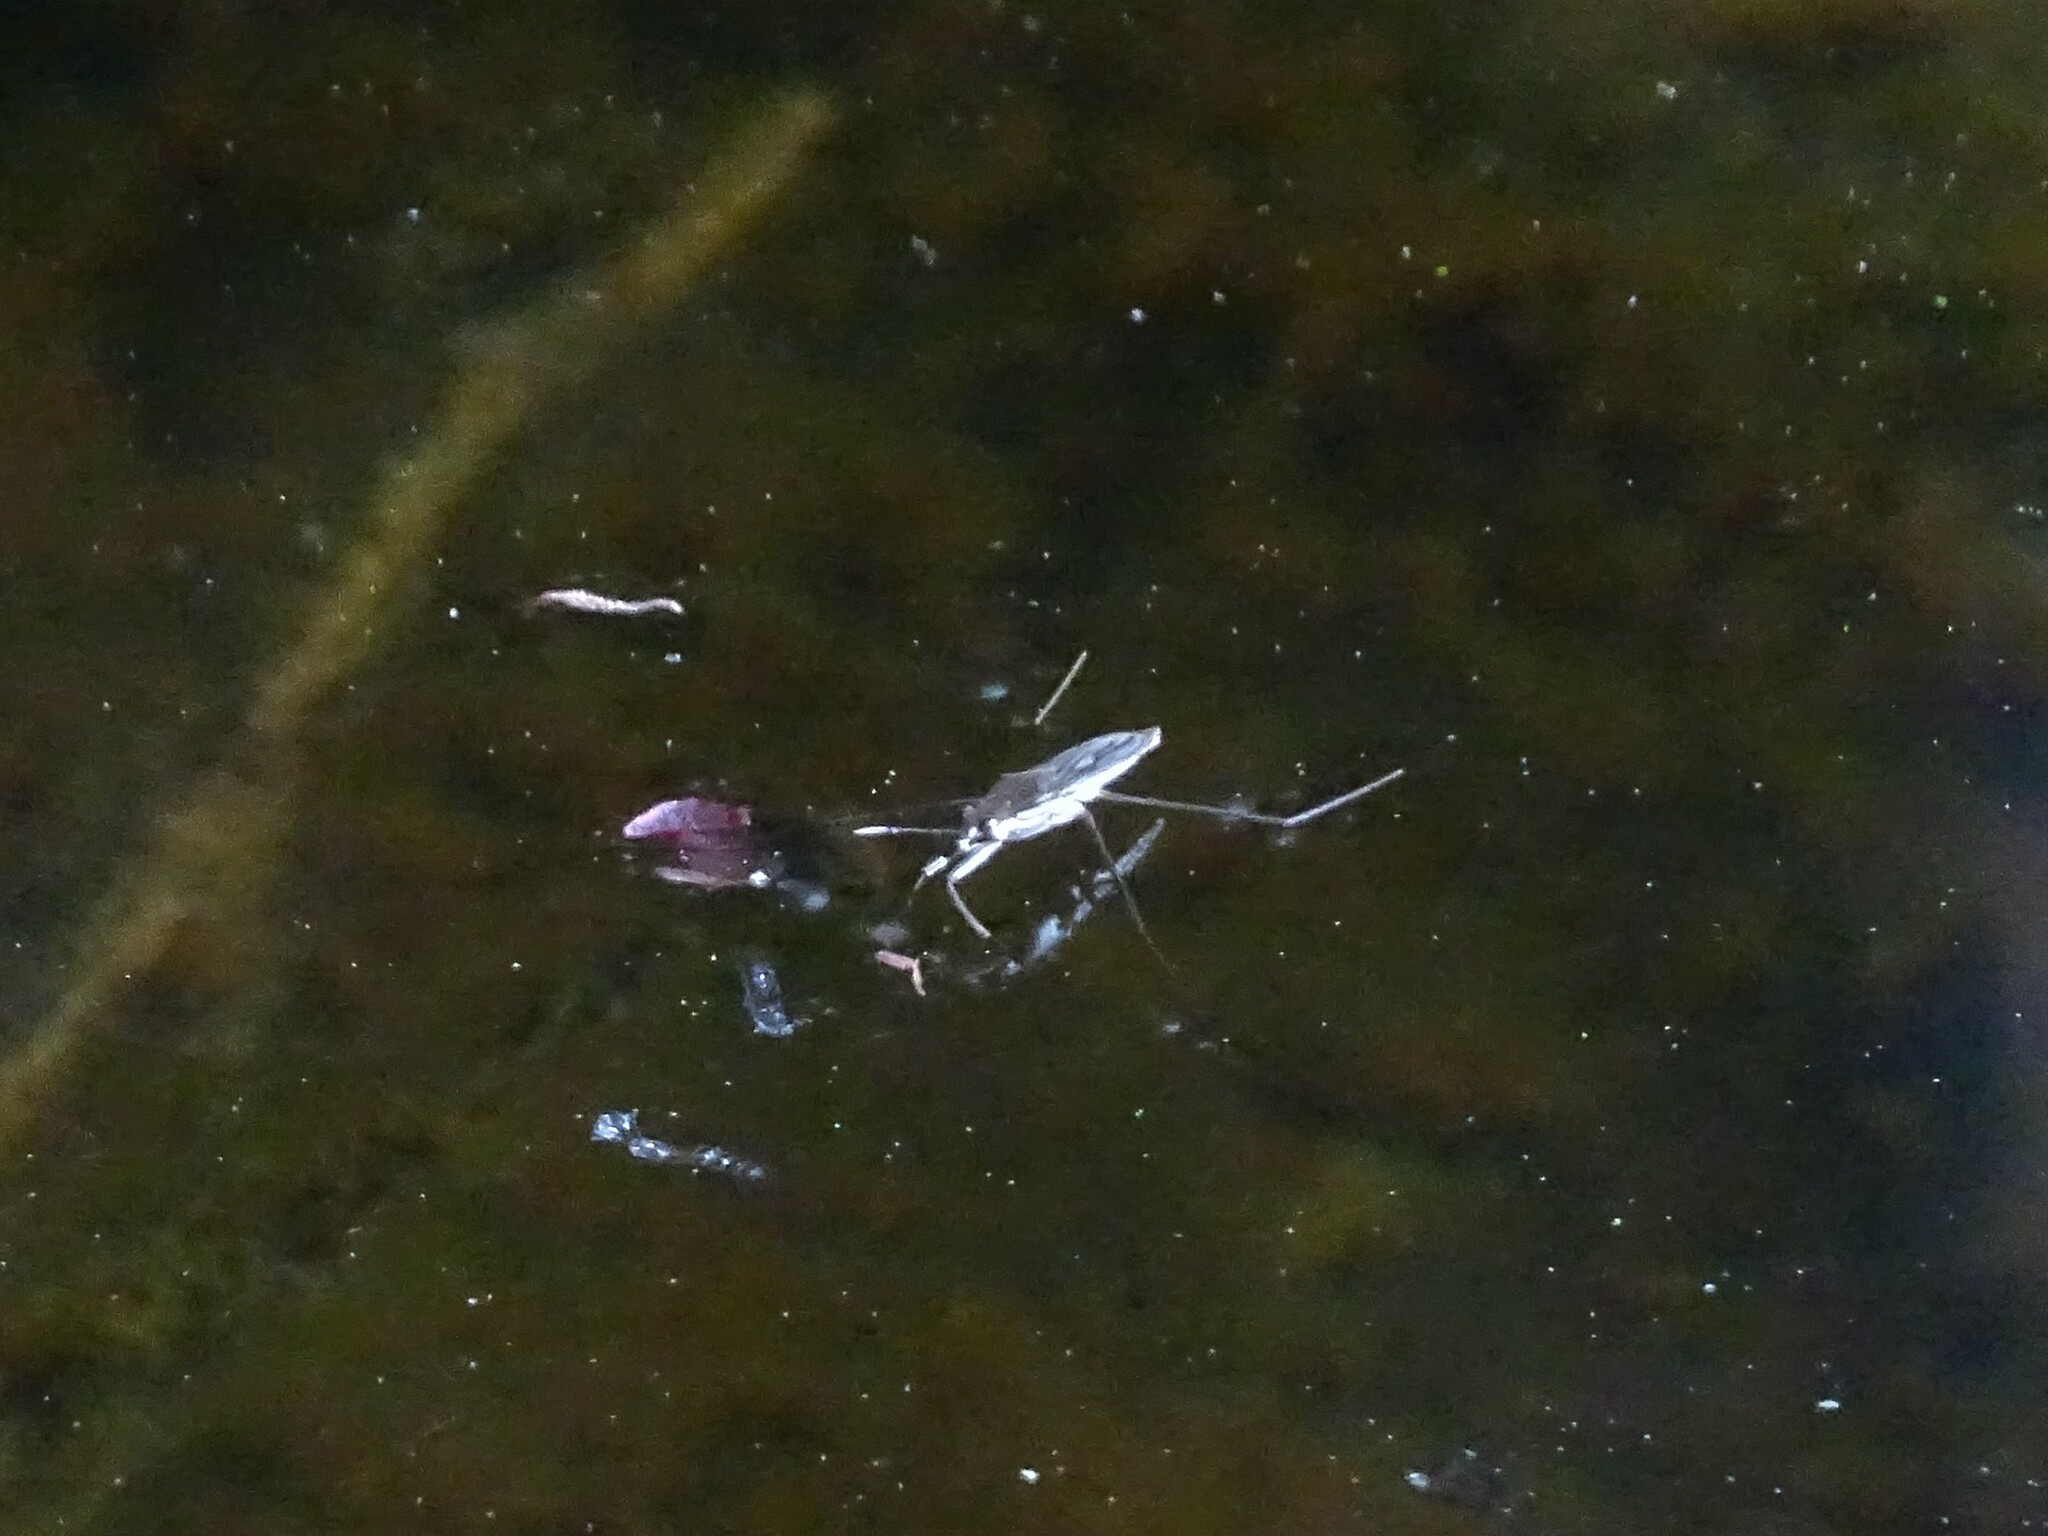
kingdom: Animalia
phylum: Arthropoda
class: Insecta
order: Hemiptera
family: Gerridae
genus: Gerris
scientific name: Gerris
